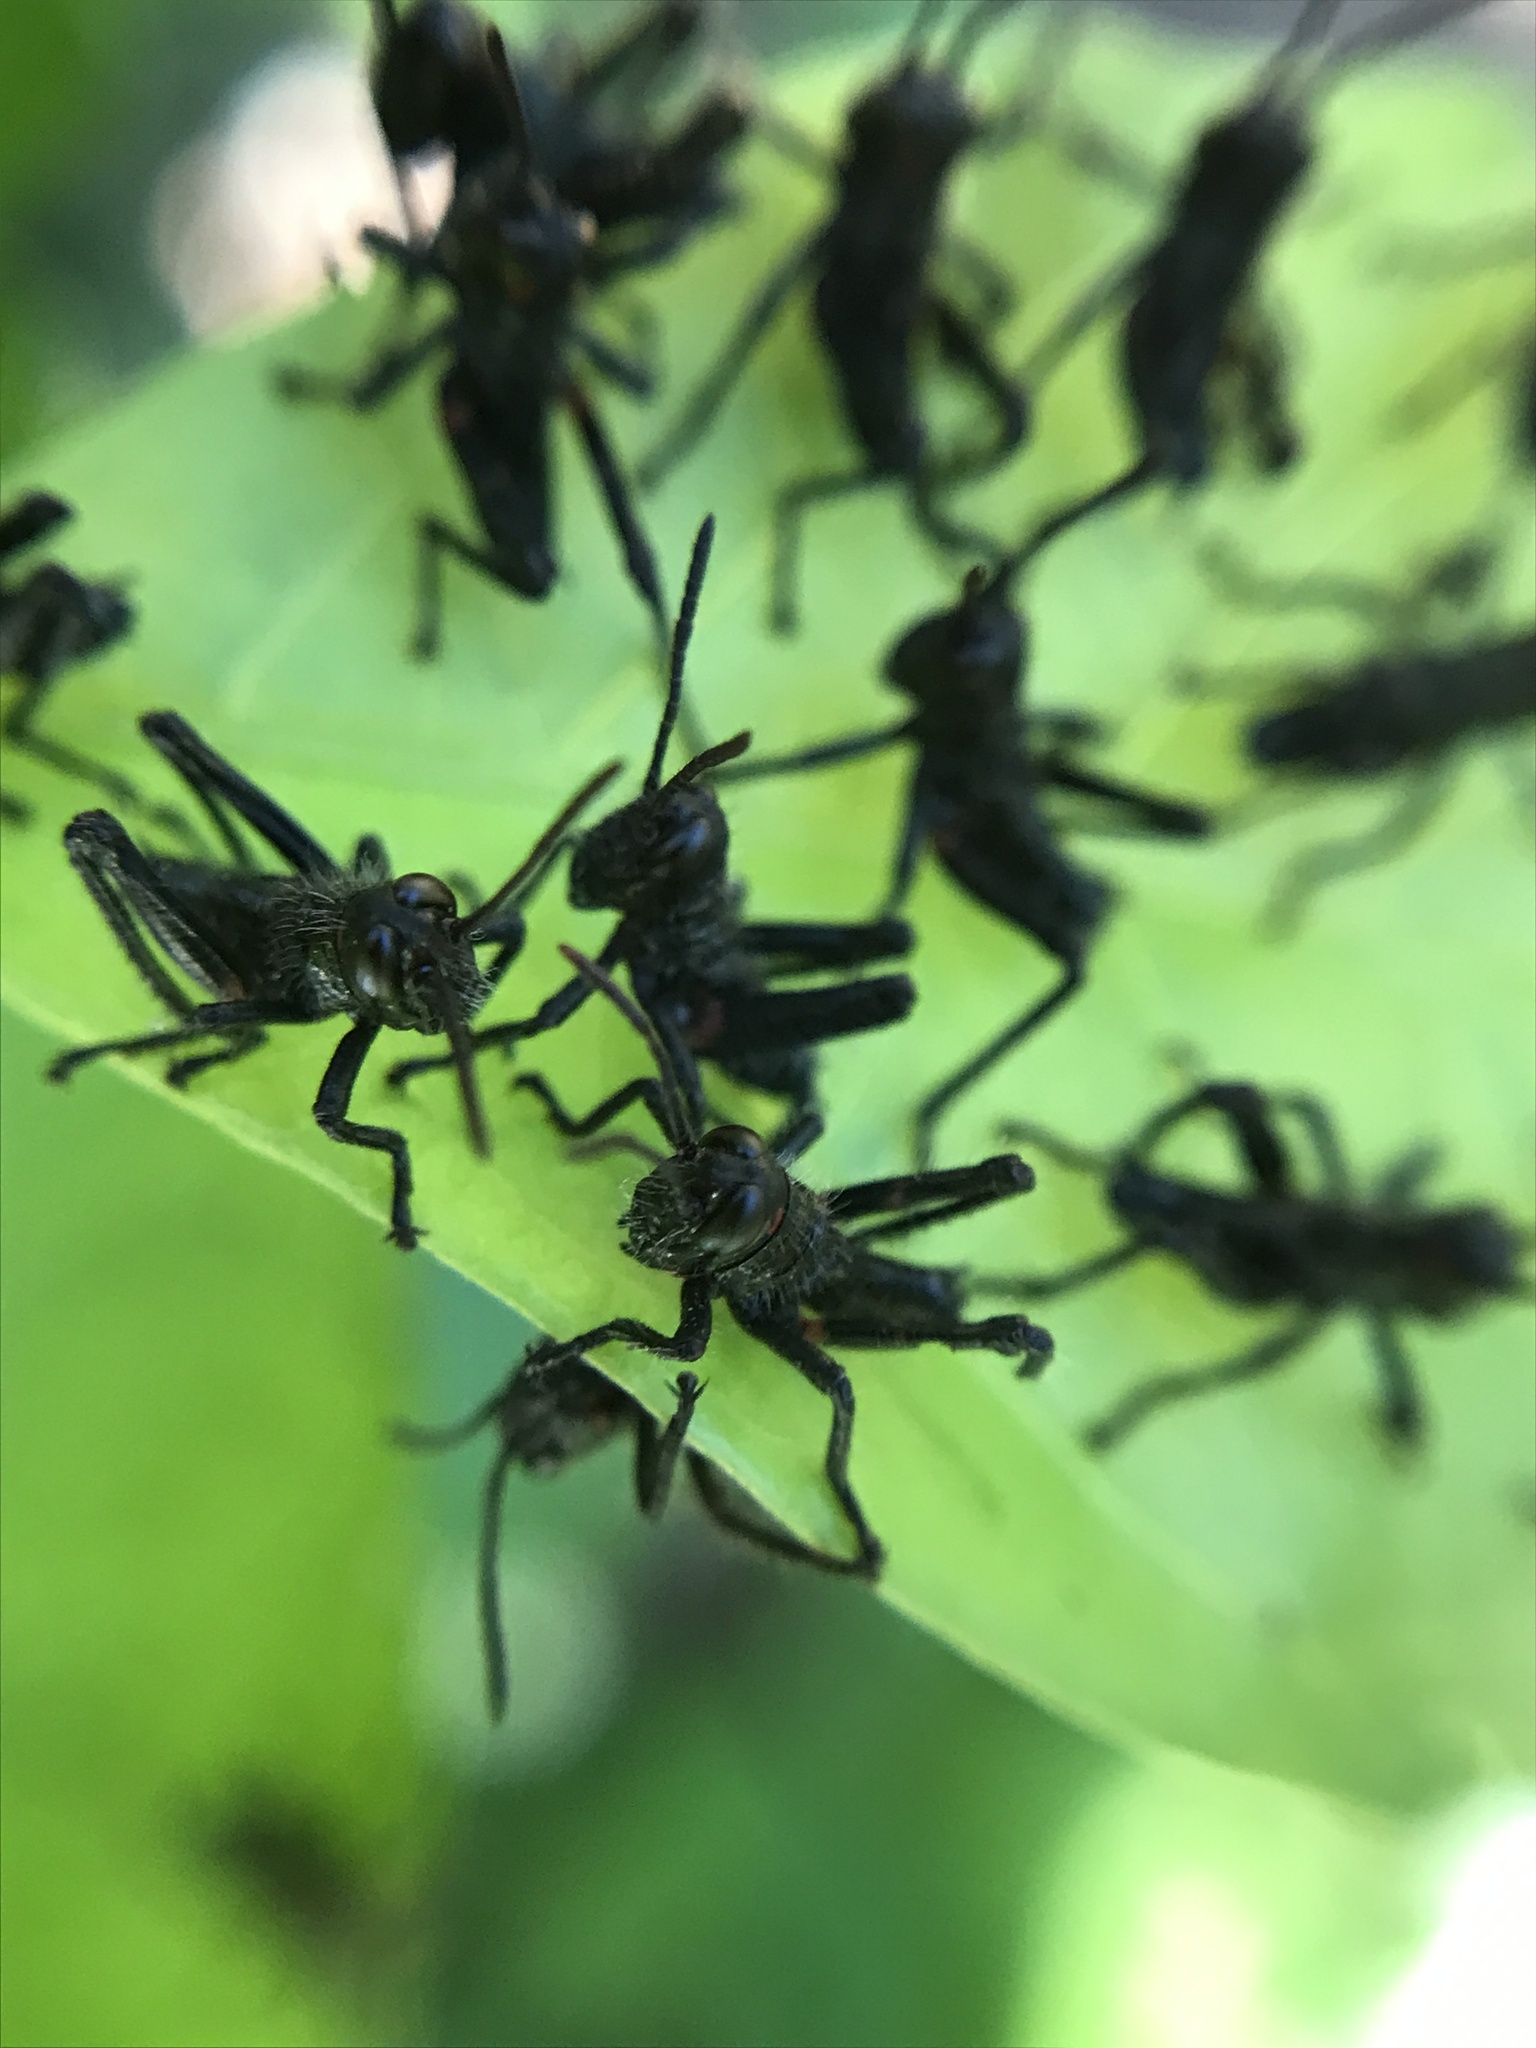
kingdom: Animalia
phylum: Arthropoda
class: Insecta
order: Orthoptera
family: Romaleidae
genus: Chromacris
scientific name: Chromacris speciosa
